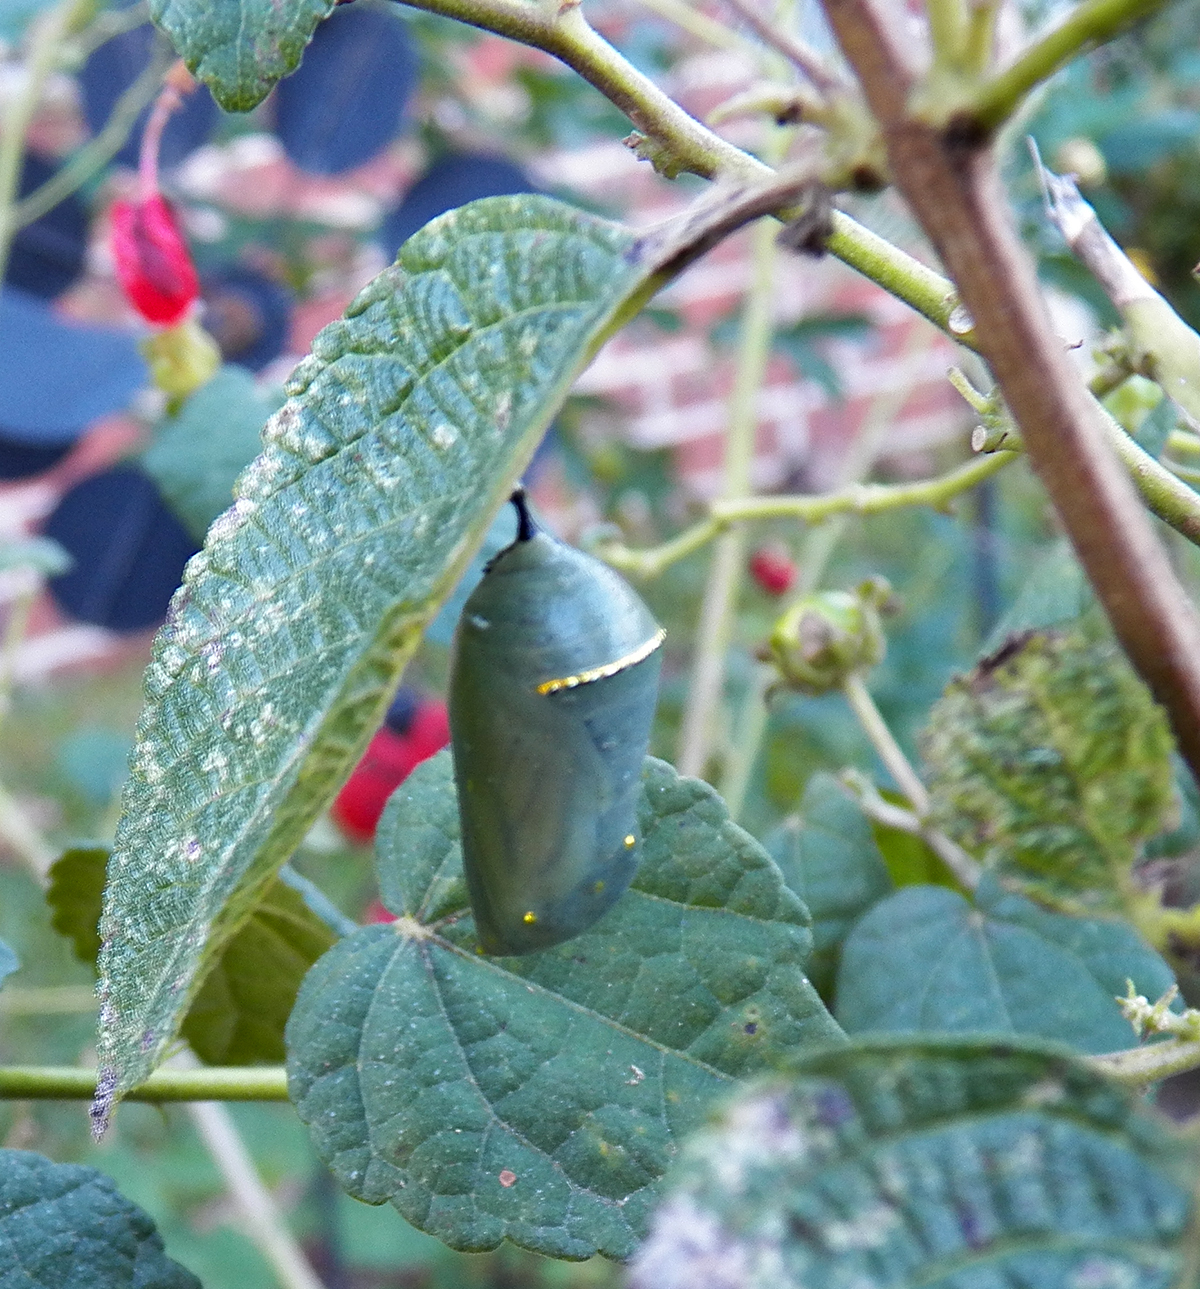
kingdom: Animalia
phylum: Arthropoda
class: Insecta
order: Lepidoptera
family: Nymphalidae
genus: Danaus
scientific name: Danaus plexippus
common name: Monarch
